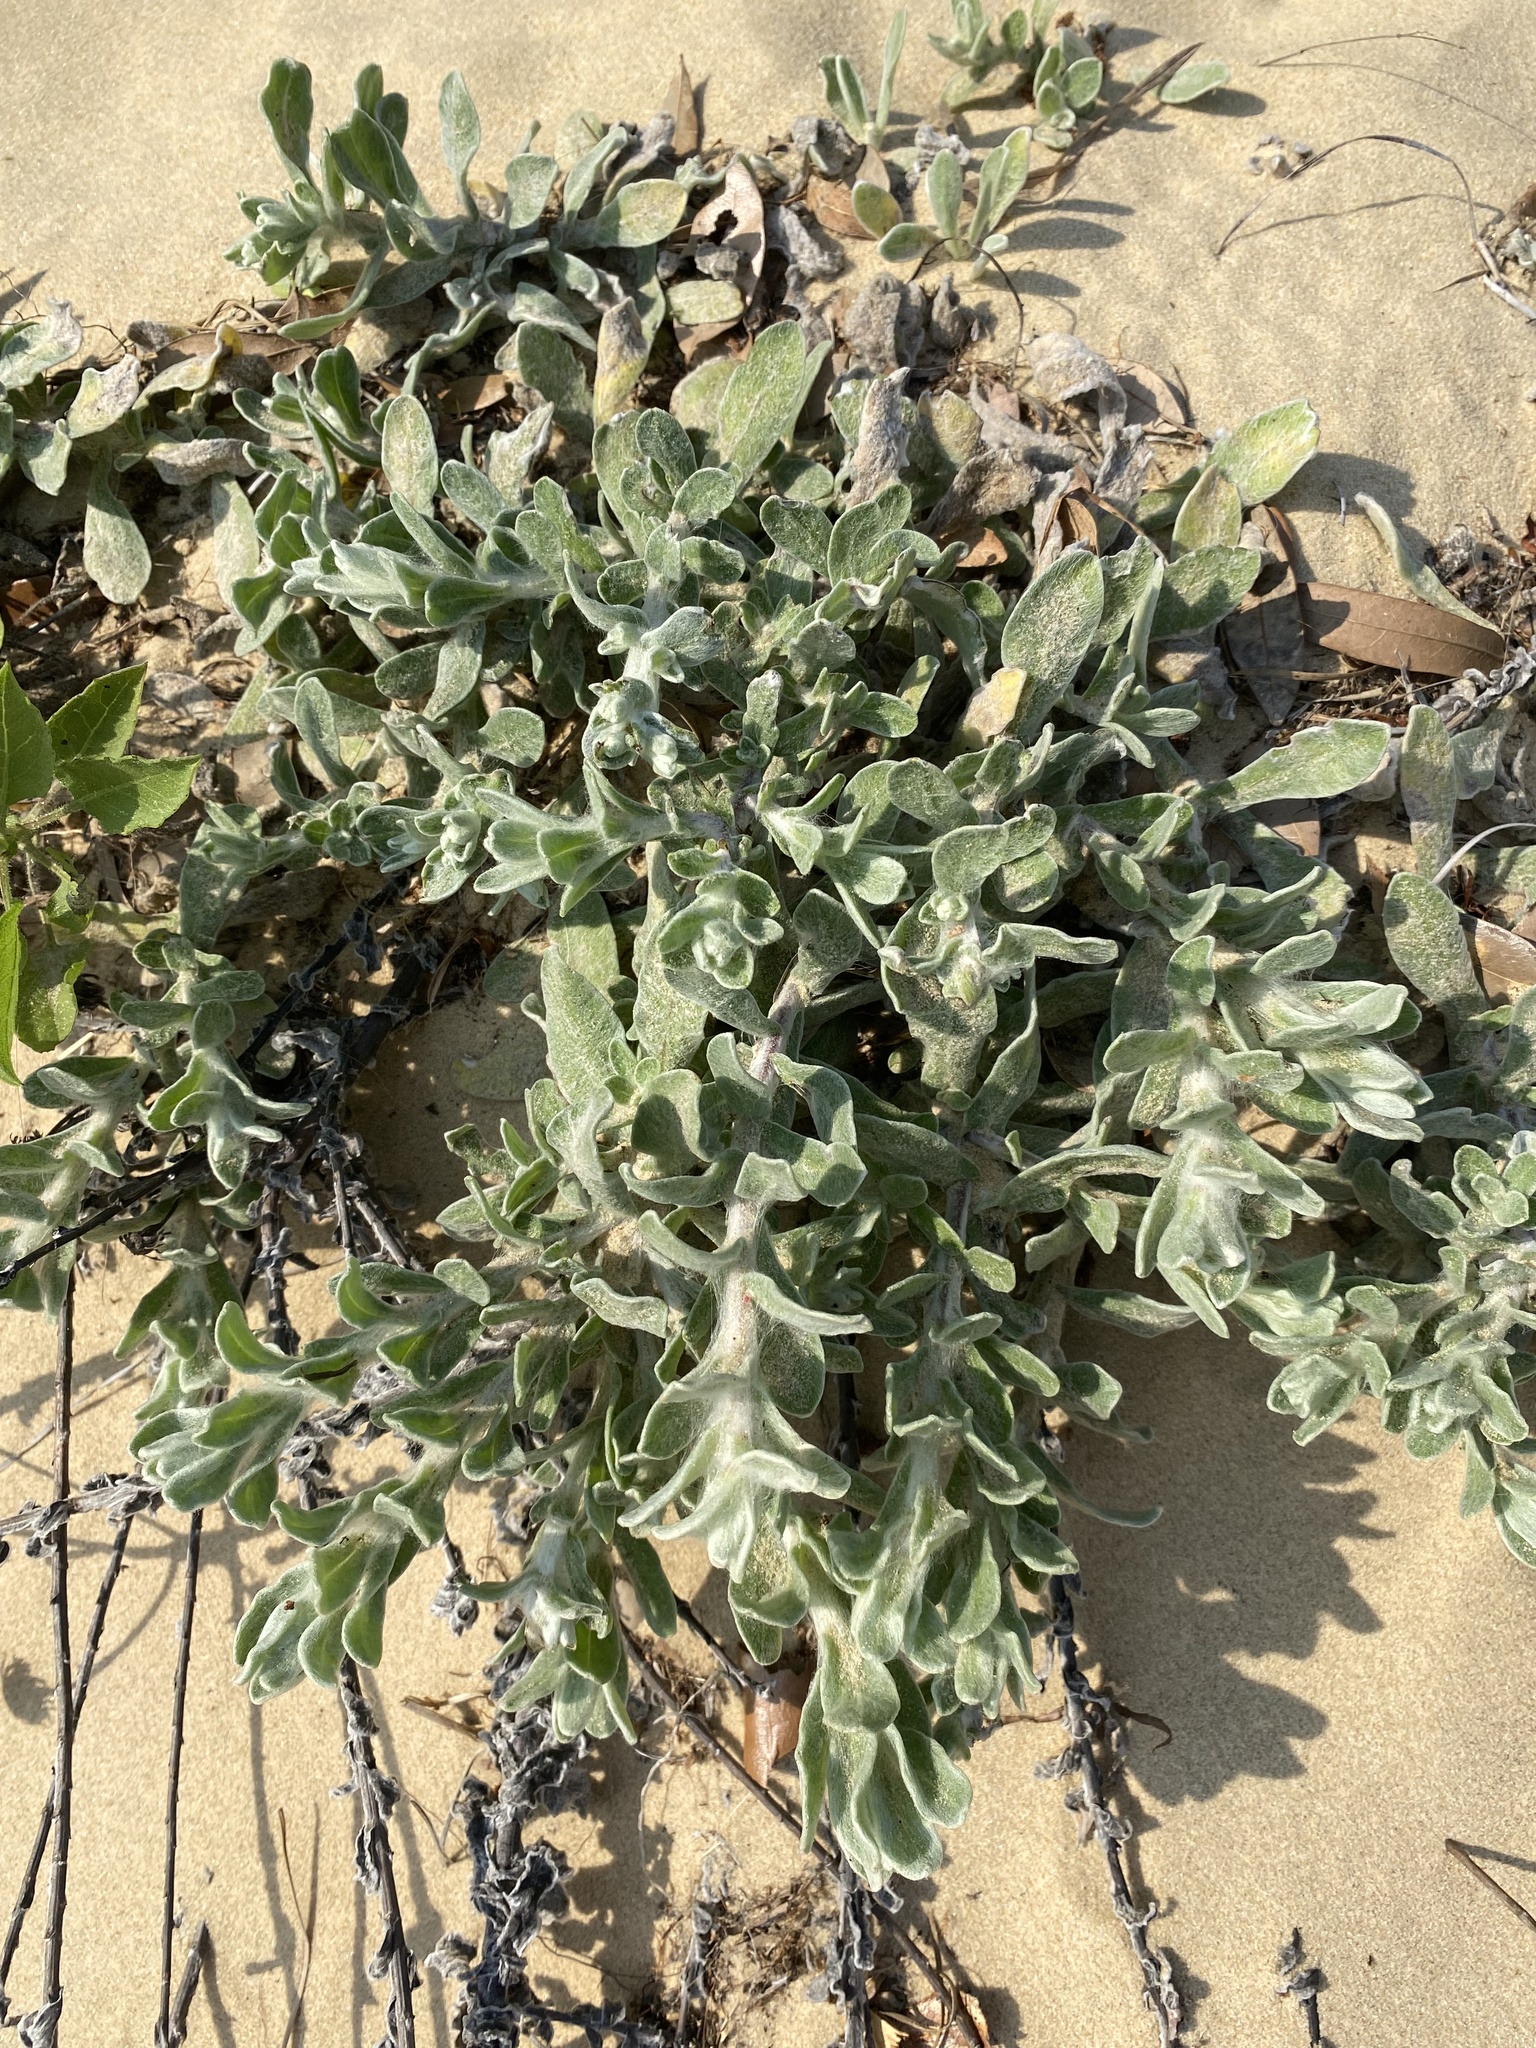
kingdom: Plantae
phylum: Tracheophyta
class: Magnoliopsida
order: Asterales
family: Asteraceae
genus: Chrysopsis
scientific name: Chrysopsis gossypina
